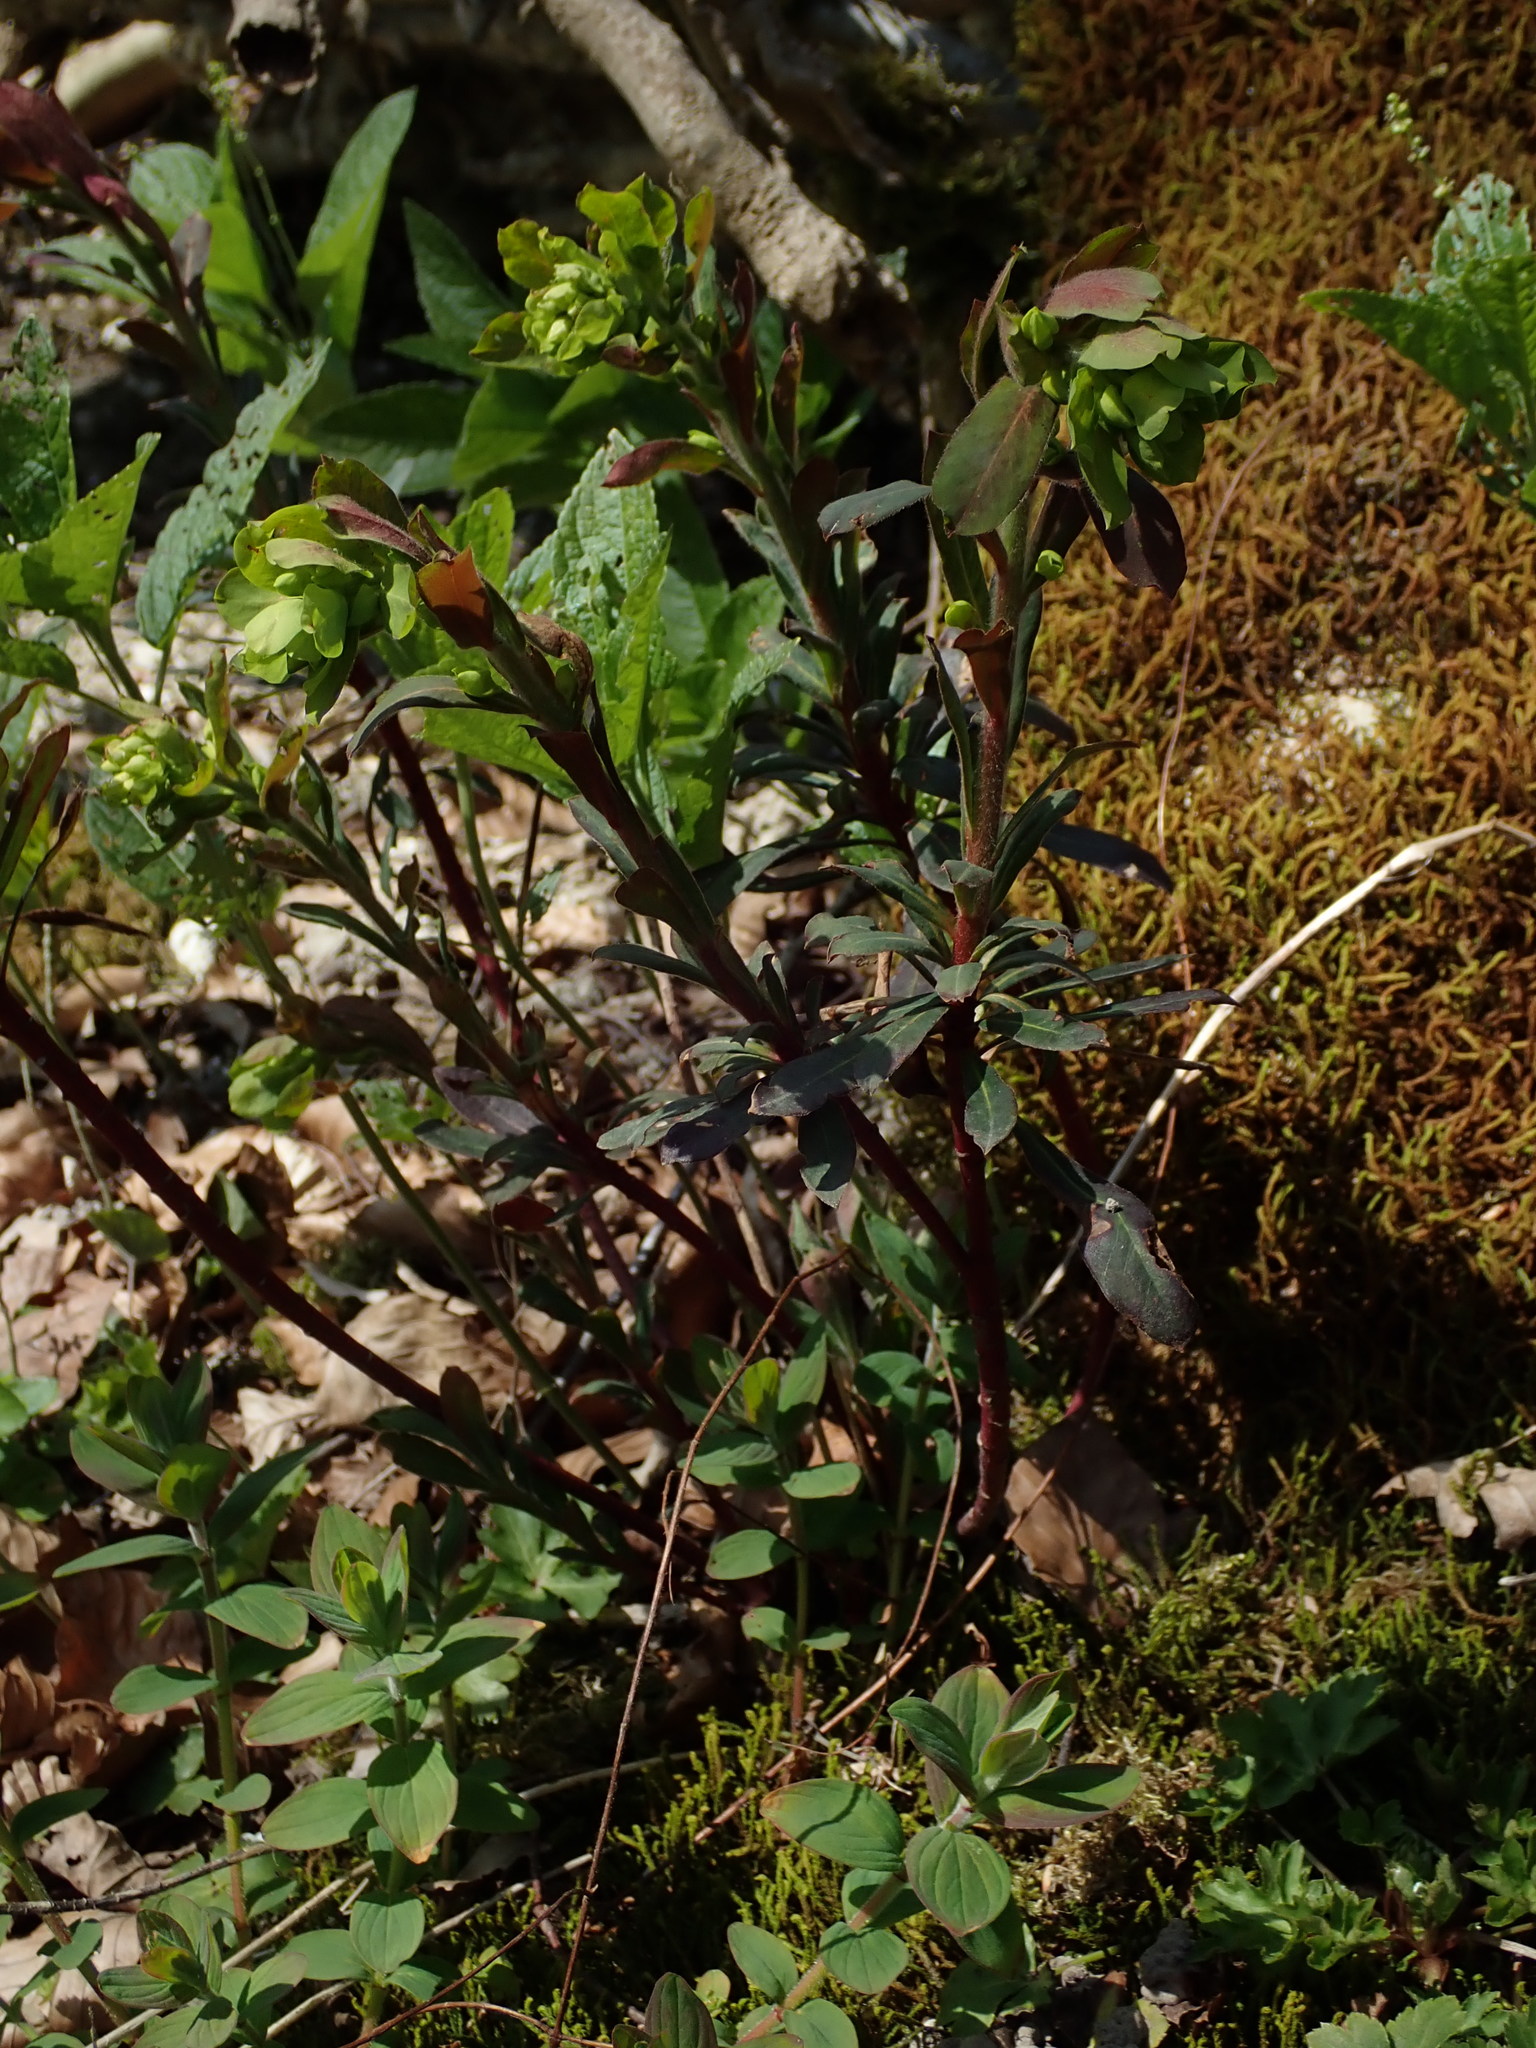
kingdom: Plantae
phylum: Tracheophyta
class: Magnoliopsida
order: Malpighiales
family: Euphorbiaceae
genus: Euphorbia
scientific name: Euphorbia amygdaloides
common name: Wood spurge
